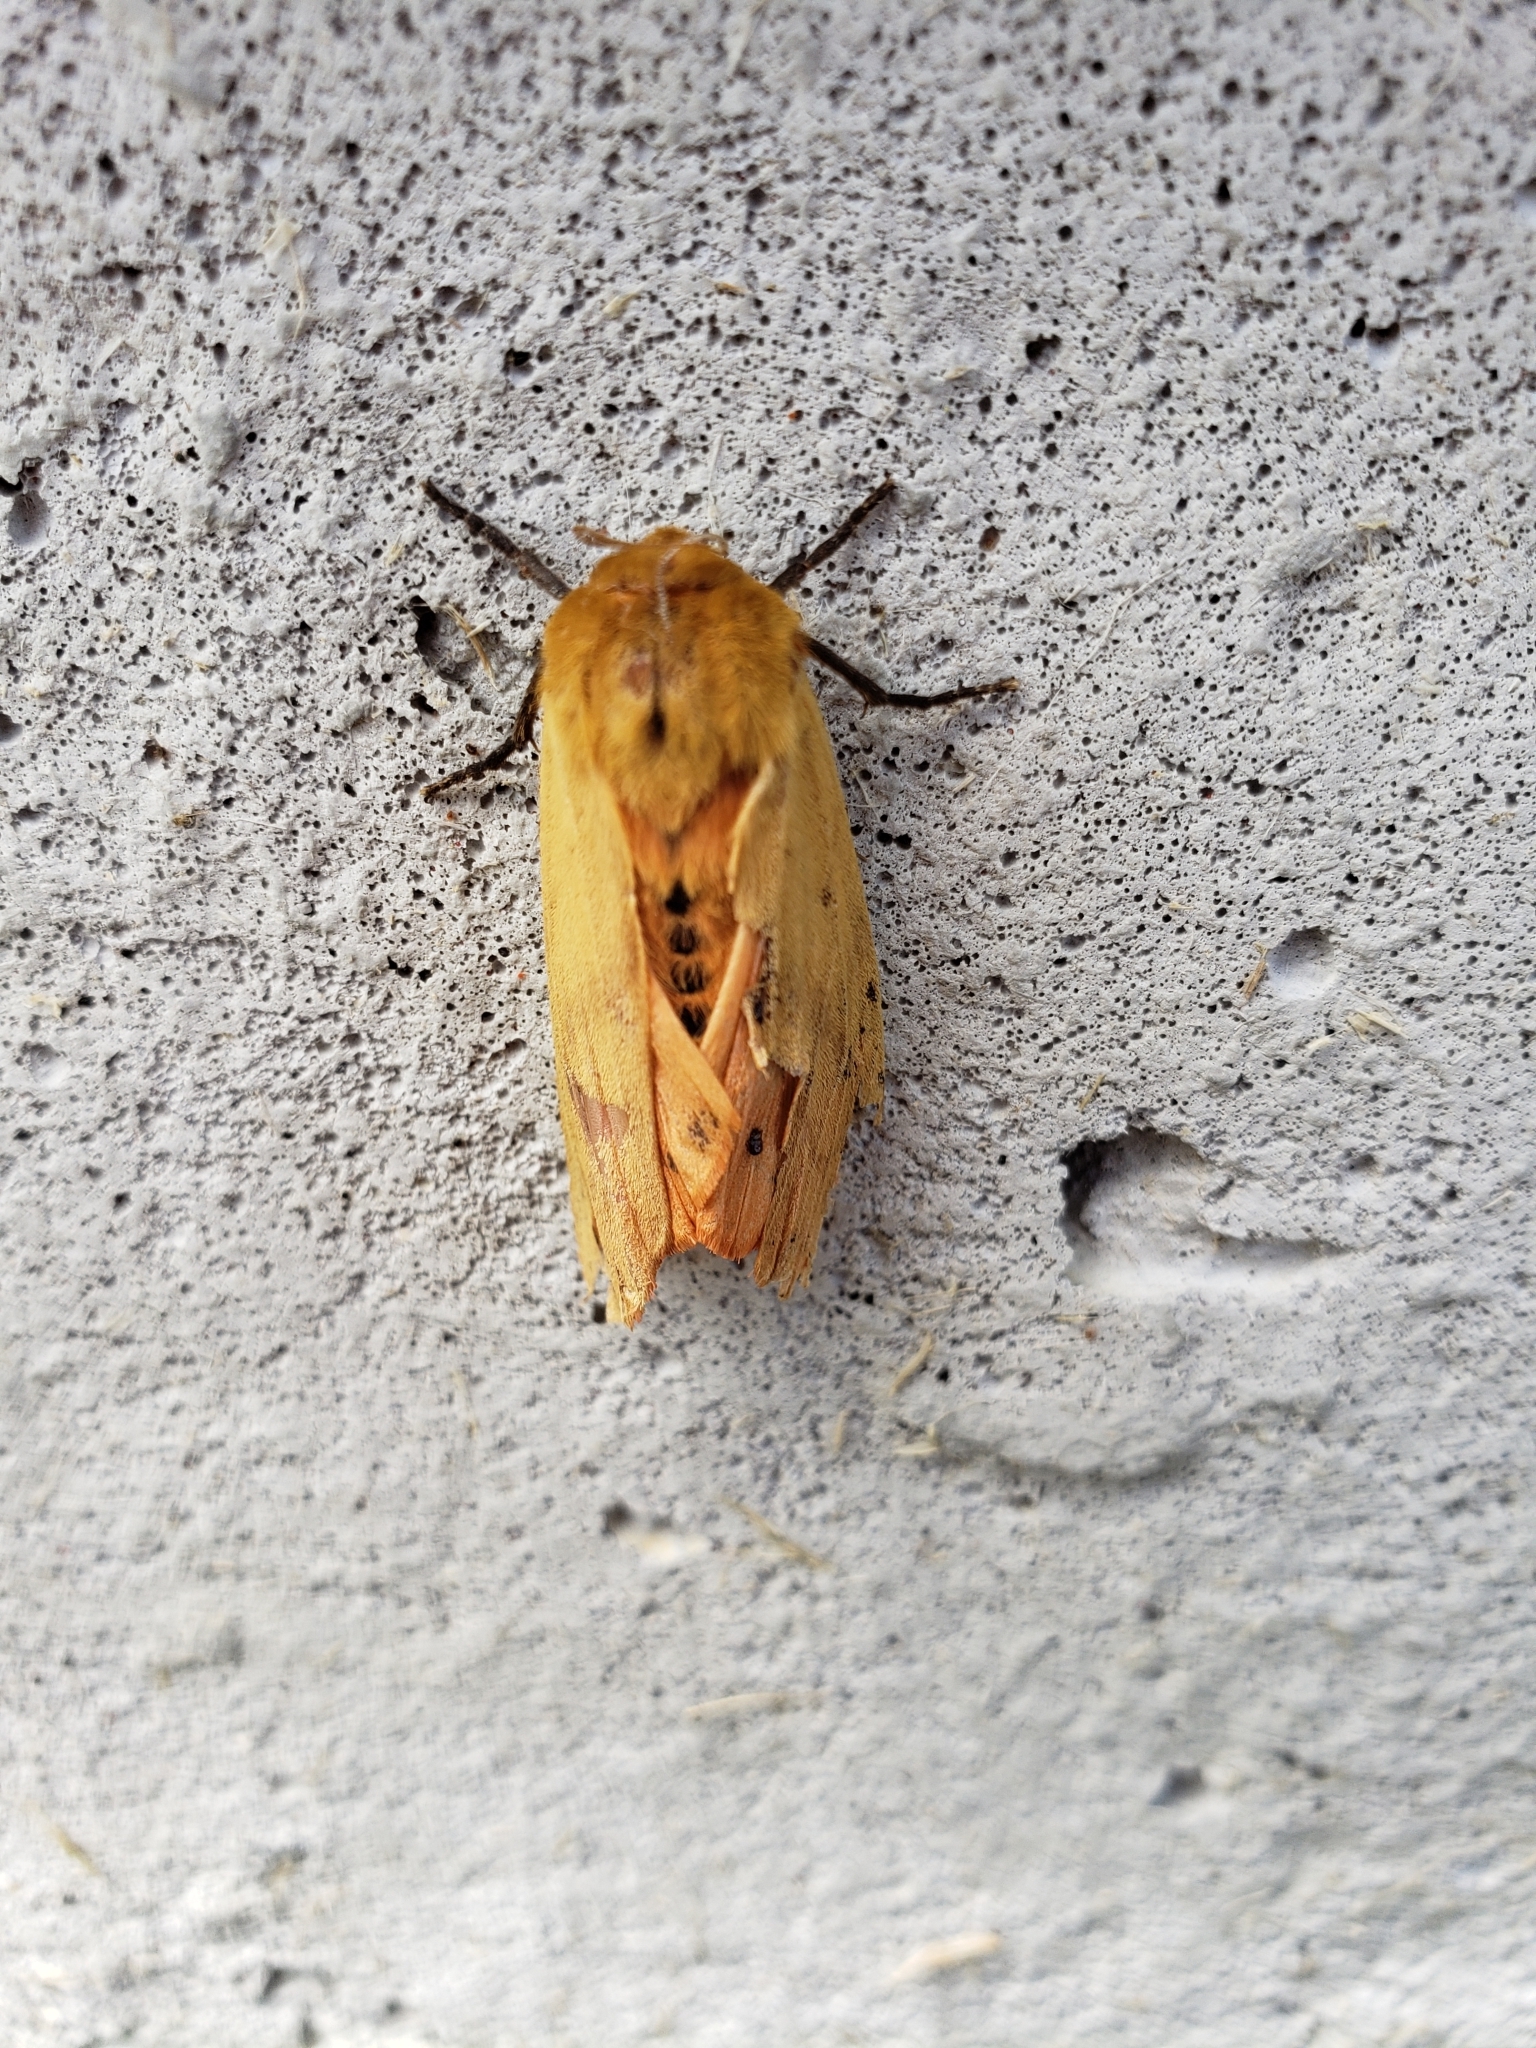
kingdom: Animalia
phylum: Arthropoda
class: Insecta
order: Lepidoptera
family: Erebidae
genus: Pyrrharctia
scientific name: Pyrrharctia isabella
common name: Isabella tiger moth
